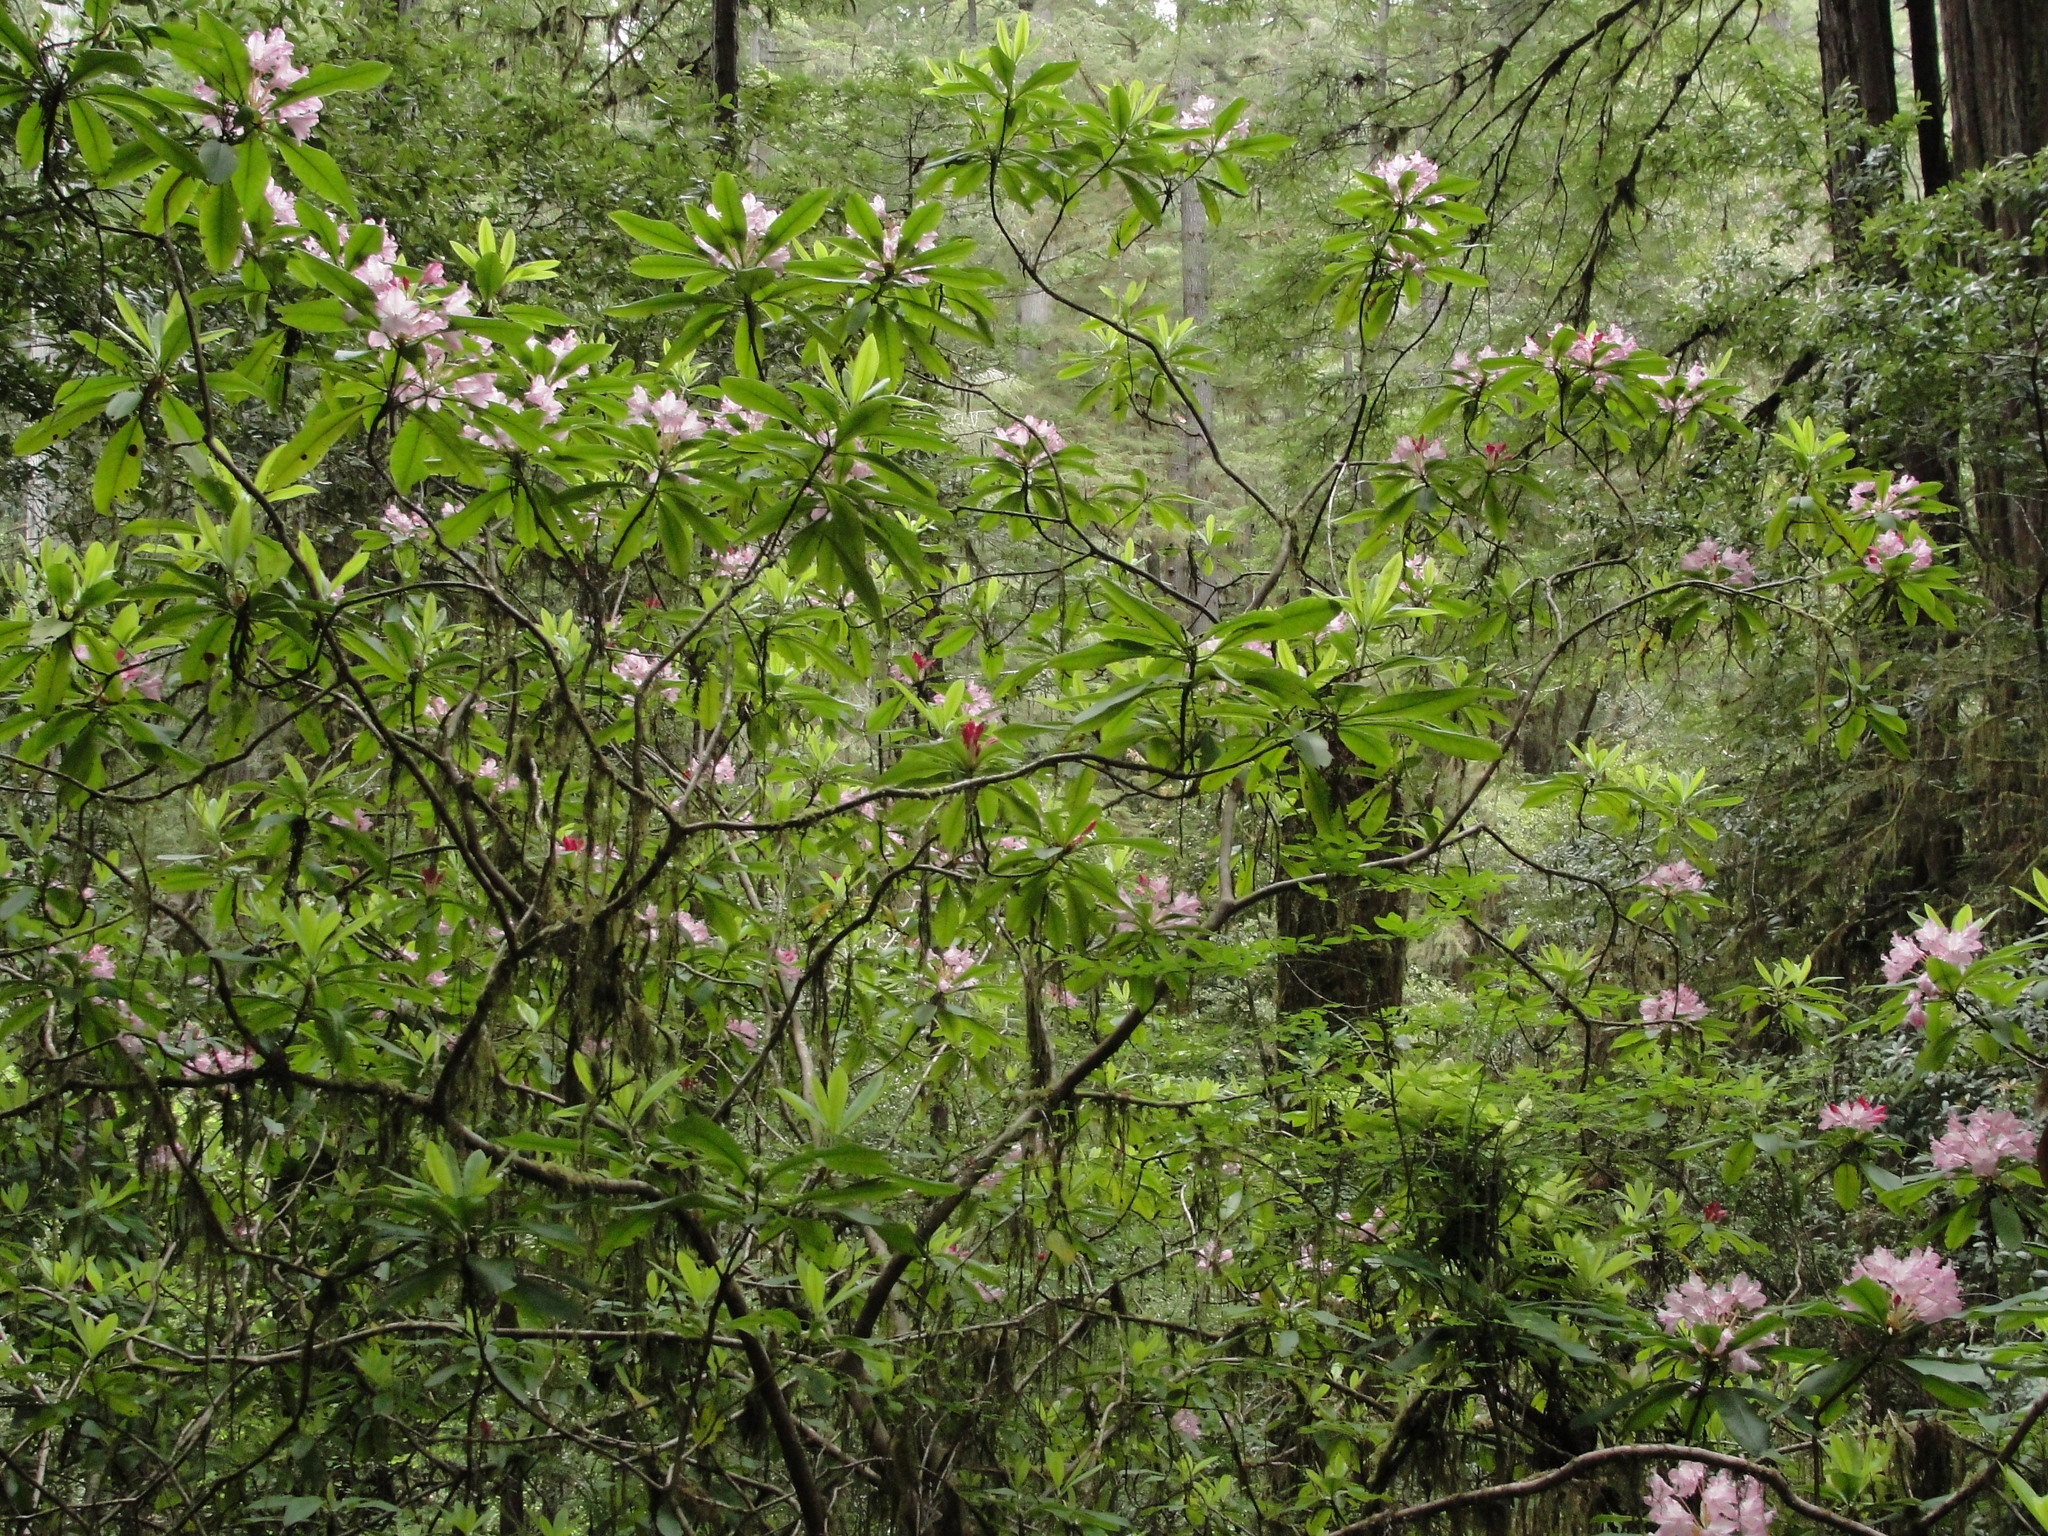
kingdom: Plantae
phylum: Tracheophyta
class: Magnoliopsida
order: Ericales
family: Ericaceae
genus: Rhododendron
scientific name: Rhododendron macrophyllum
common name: California rose bay
